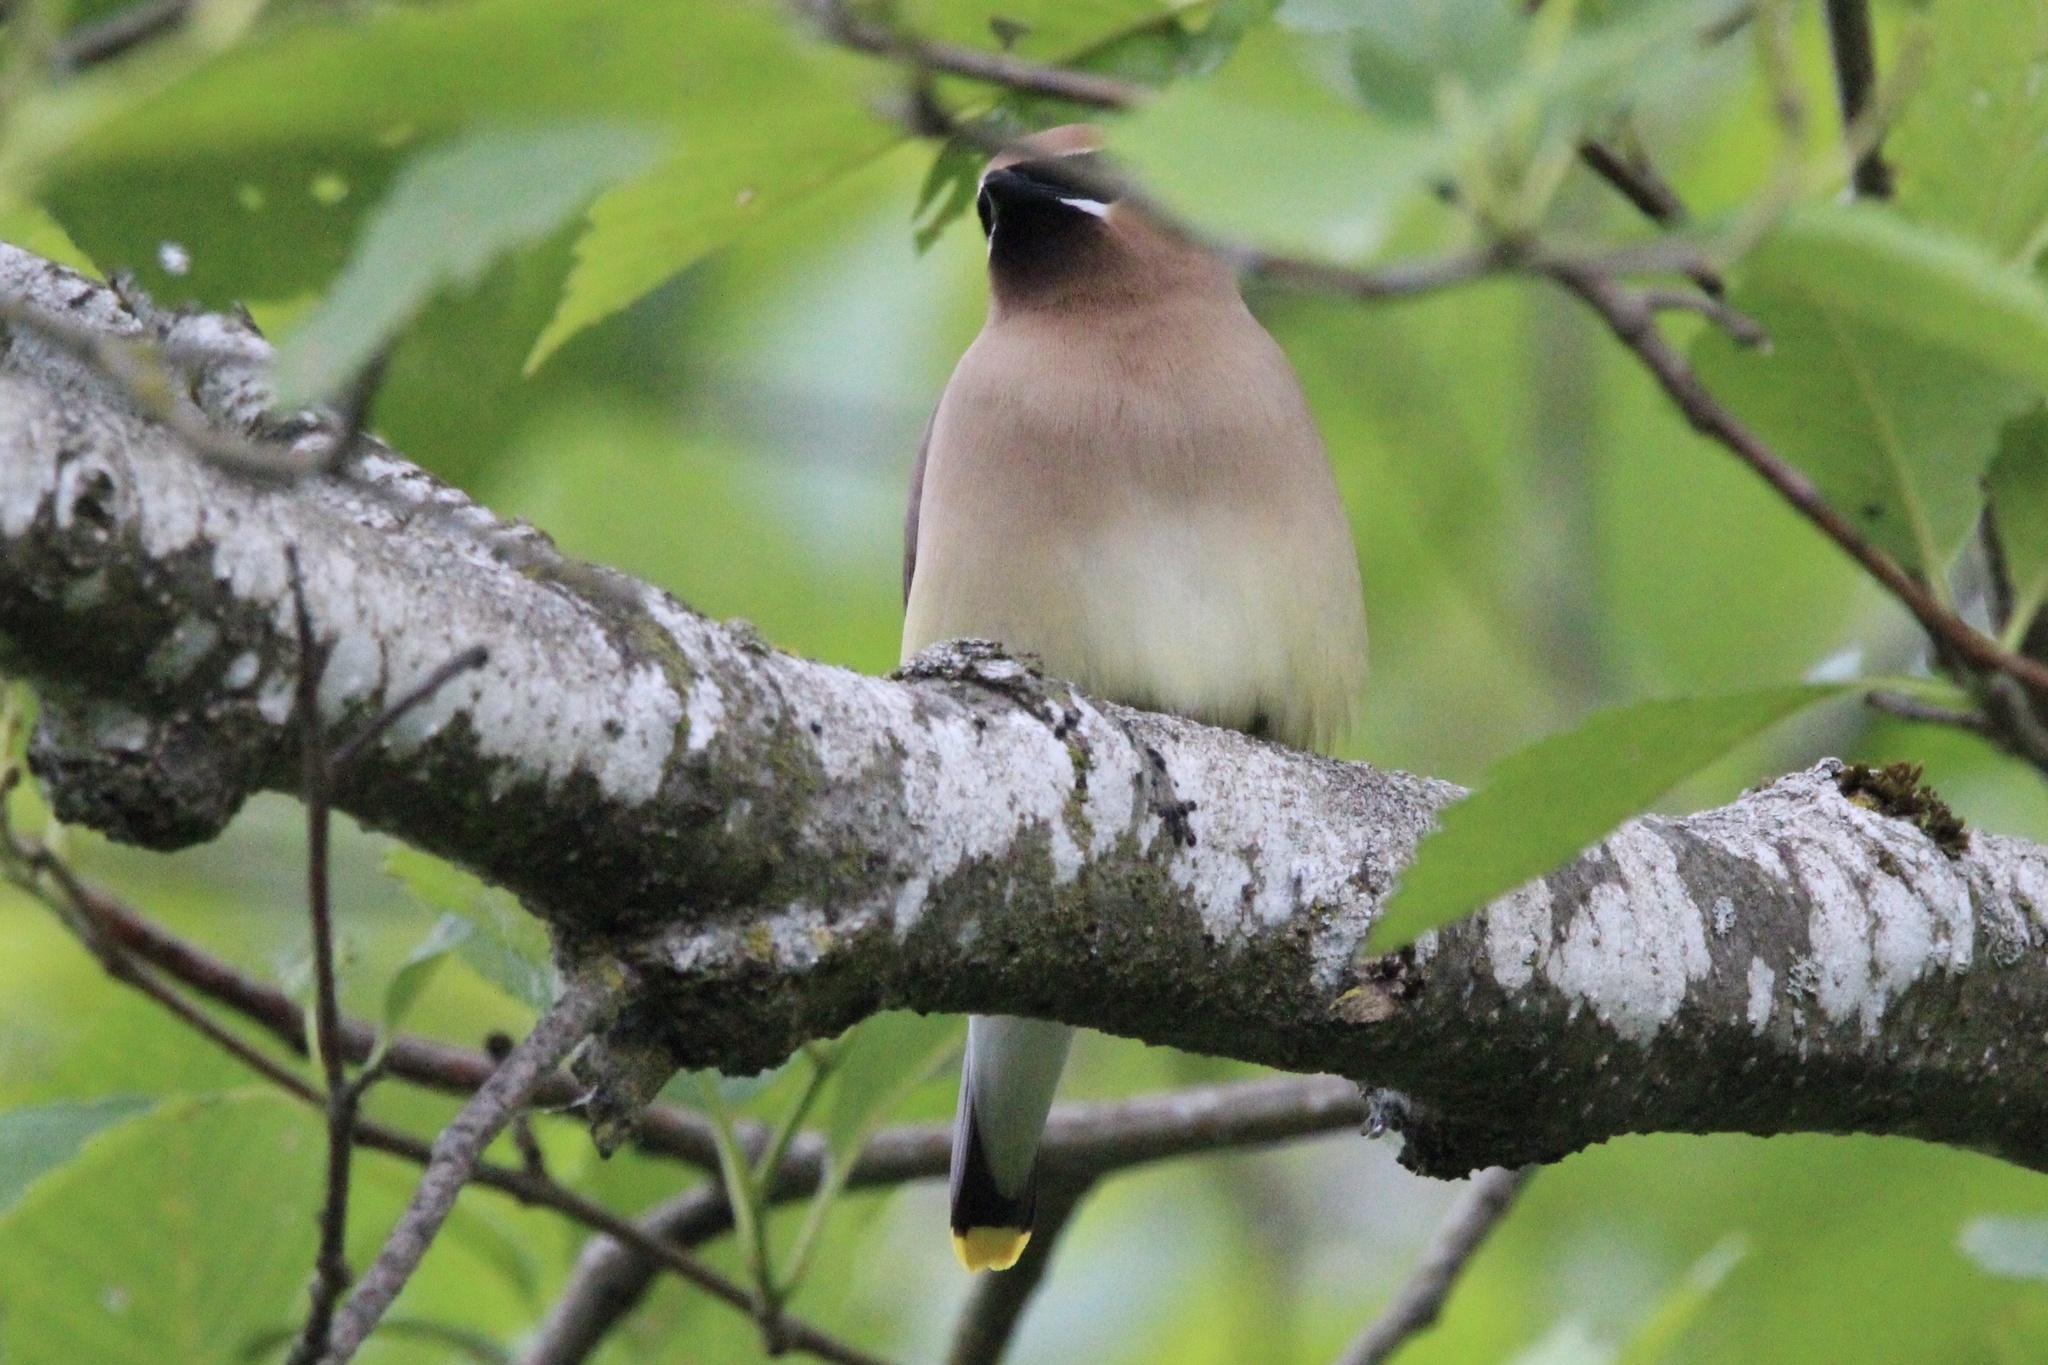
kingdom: Animalia
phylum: Chordata
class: Aves
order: Passeriformes
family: Bombycillidae
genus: Bombycilla
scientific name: Bombycilla cedrorum
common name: Cedar waxwing
